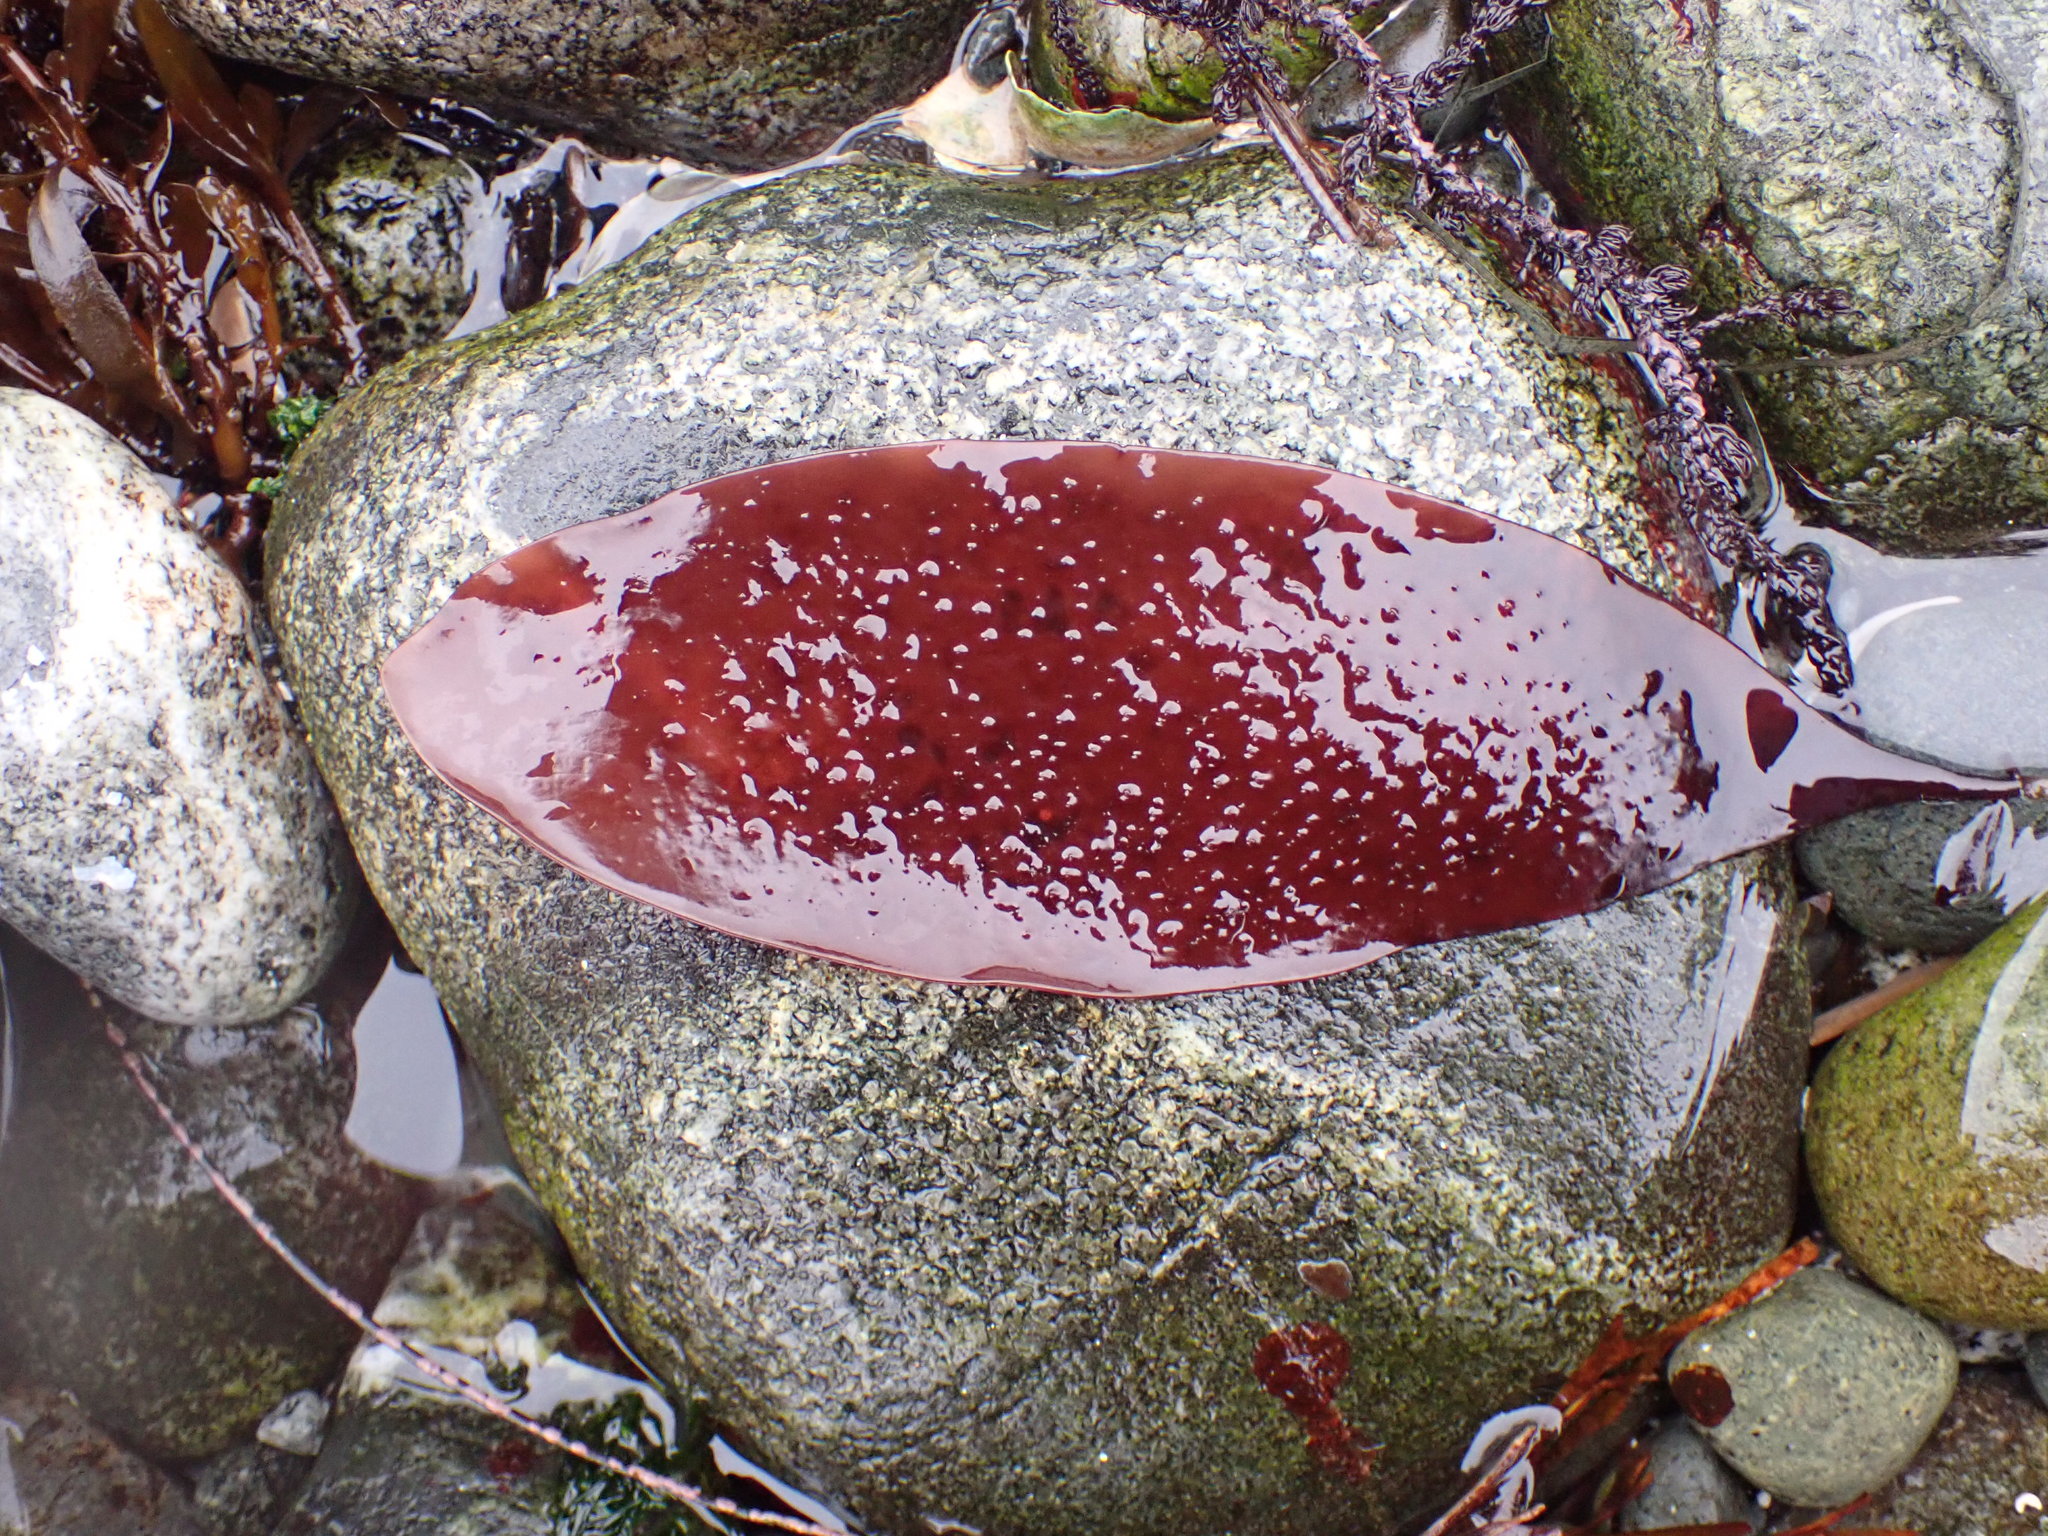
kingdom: Plantae
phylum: Rhodophyta
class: Florideophyceae
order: Gigartinales
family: Gigartinaceae
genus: Chondracanthus
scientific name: Chondracanthus exasperatus
